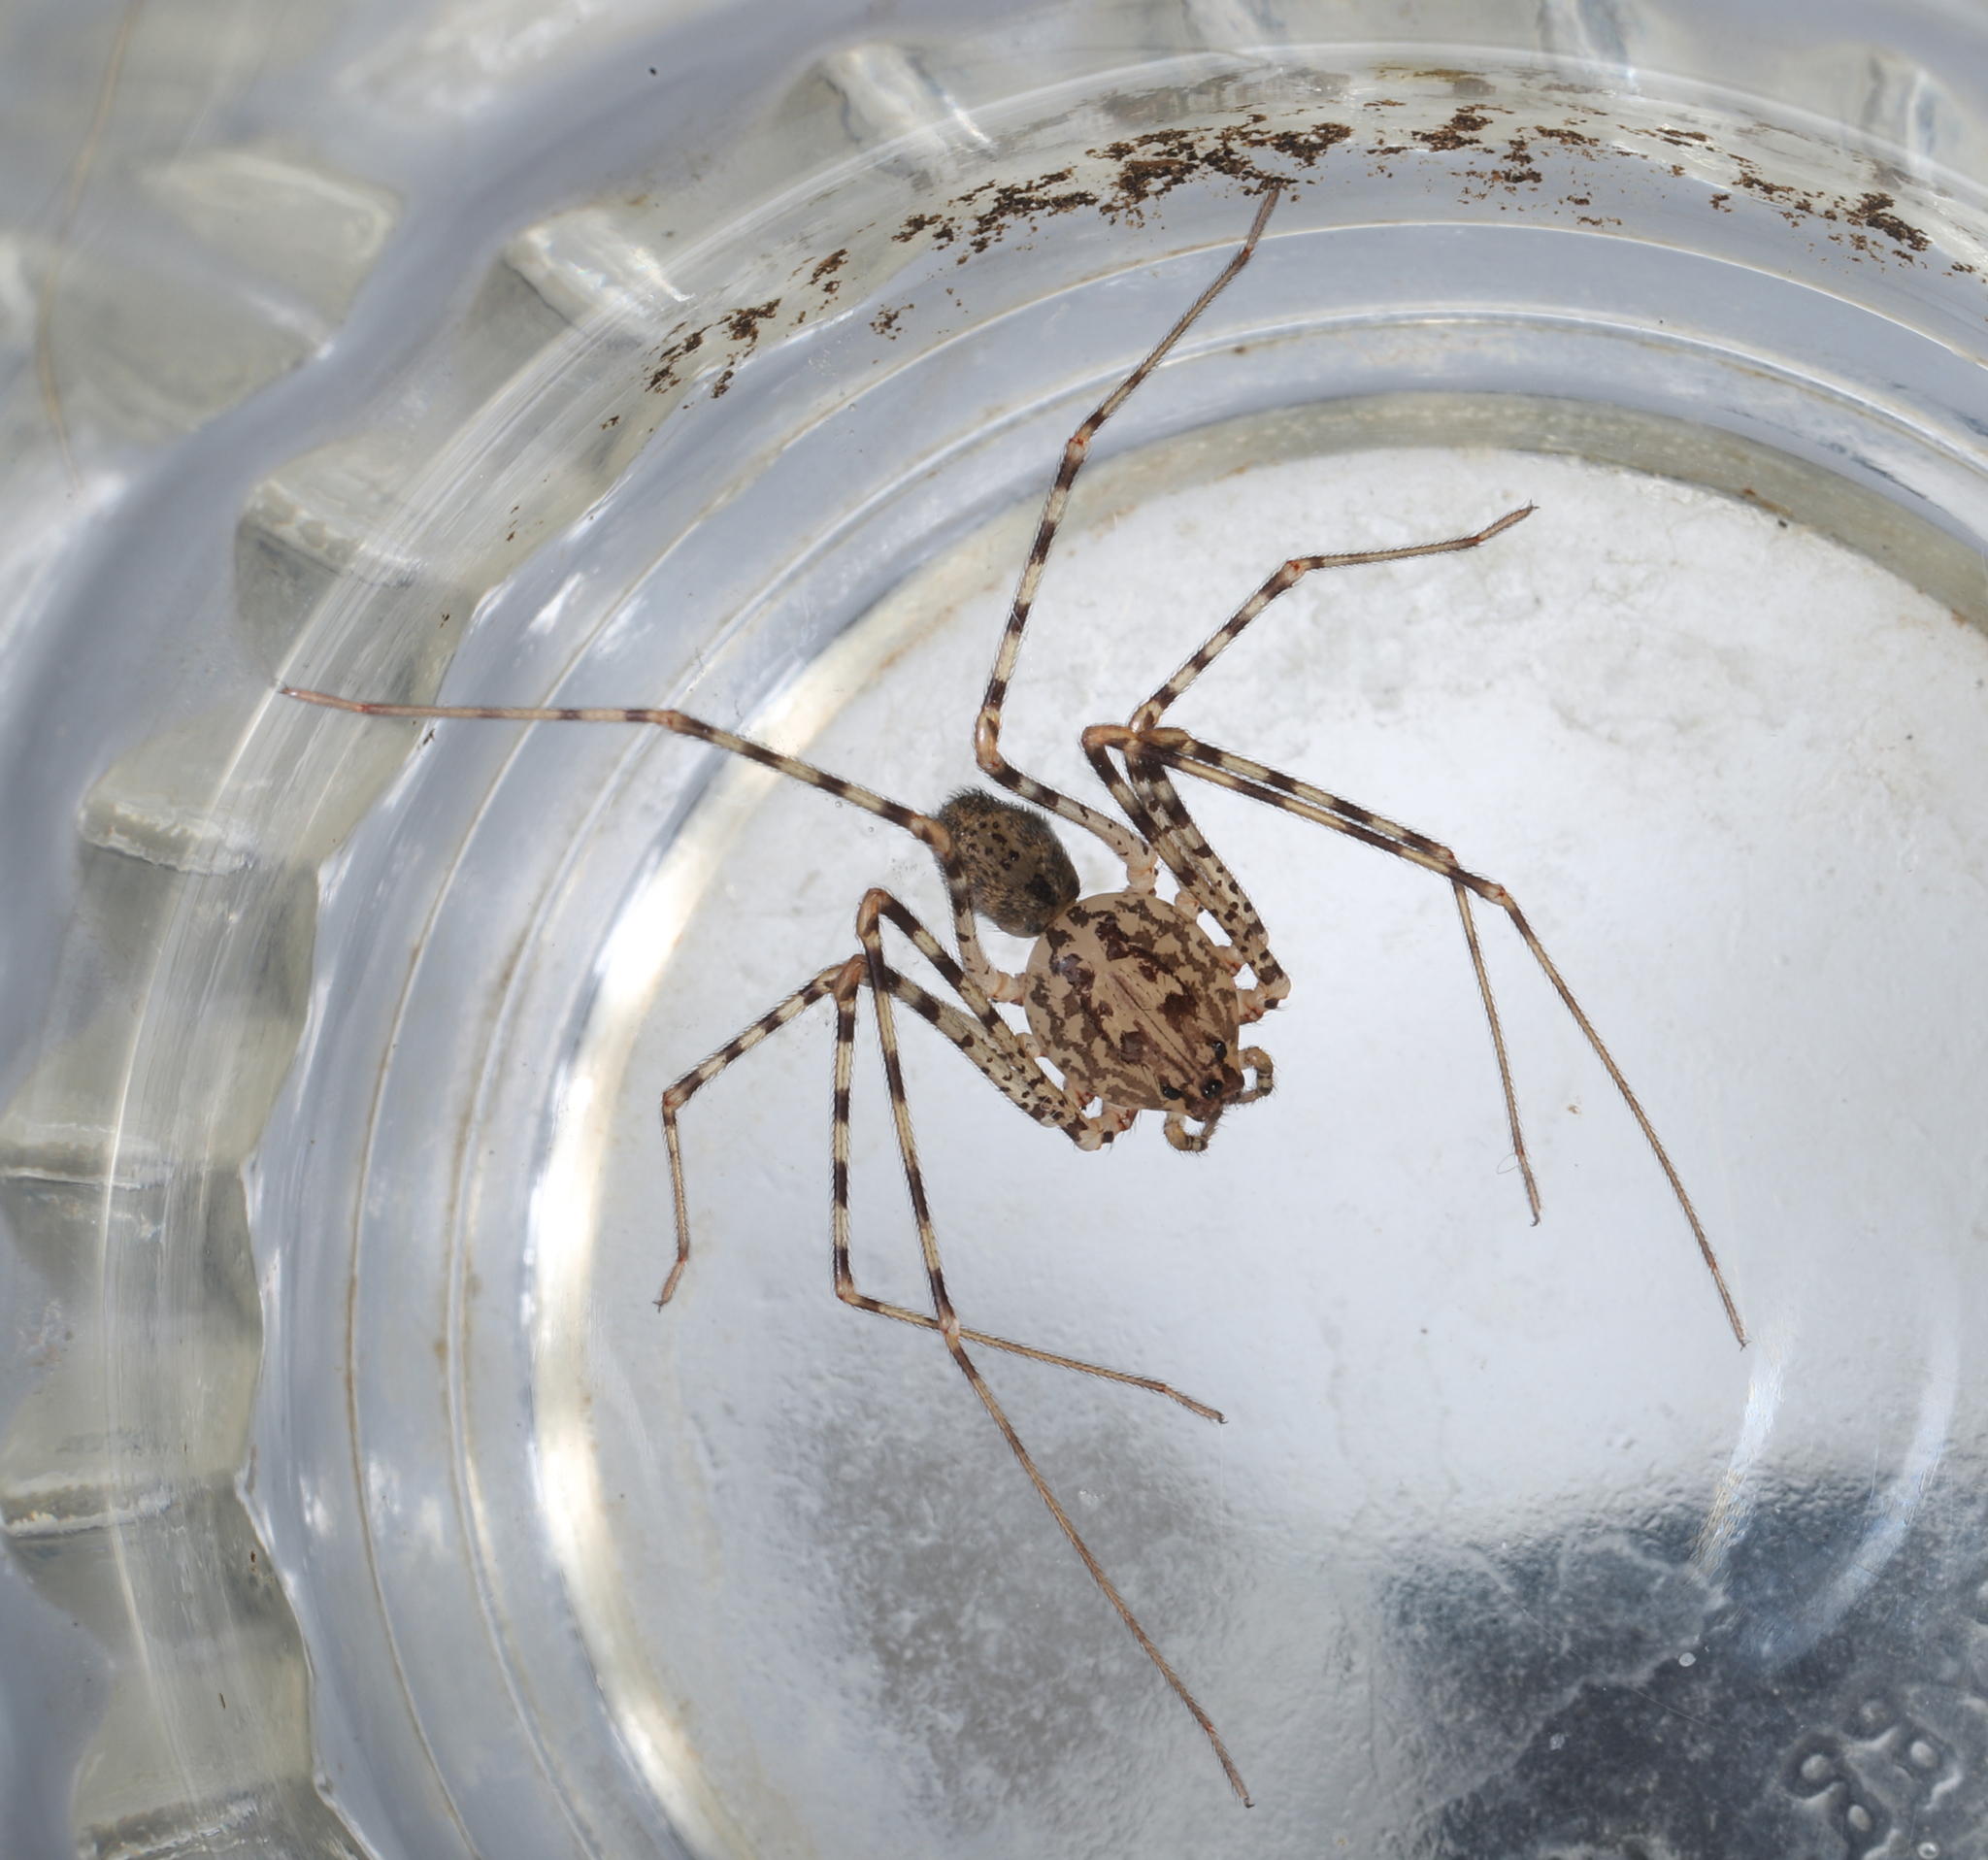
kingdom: Animalia
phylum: Arthropoda
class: Arachnida
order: Araneae
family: Scytodidae
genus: Scytodes
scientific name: Scytodes globula
